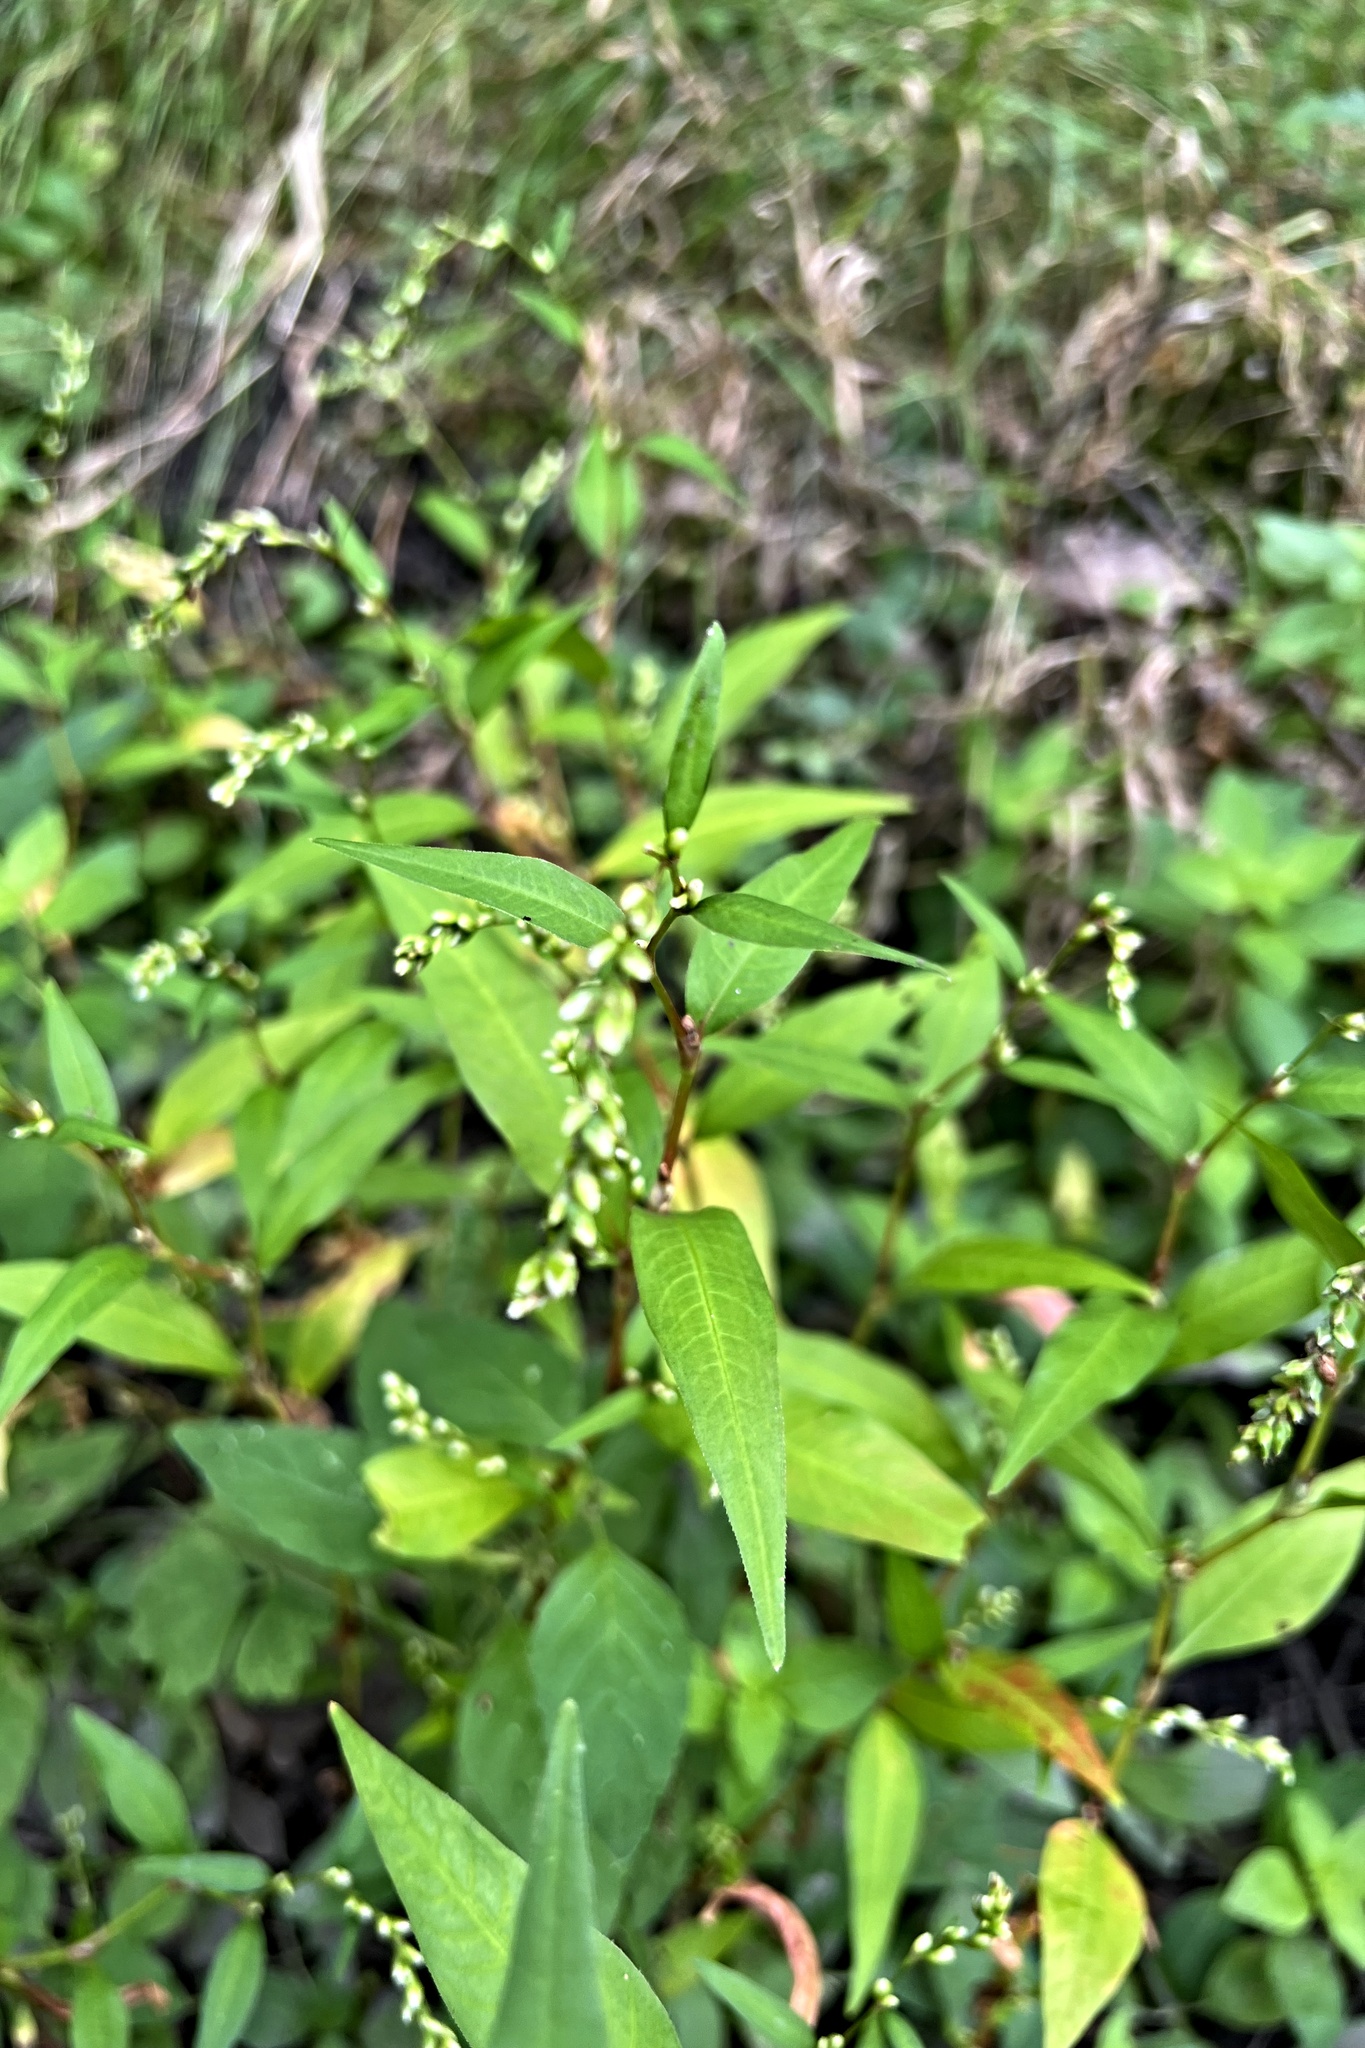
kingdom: Plantae
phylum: Tracheophyta
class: Magnoliopsida
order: Caryophyllales
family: Polygonaceae
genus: Persicaria
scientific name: Persicaria hydropiper
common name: Water-pepper
